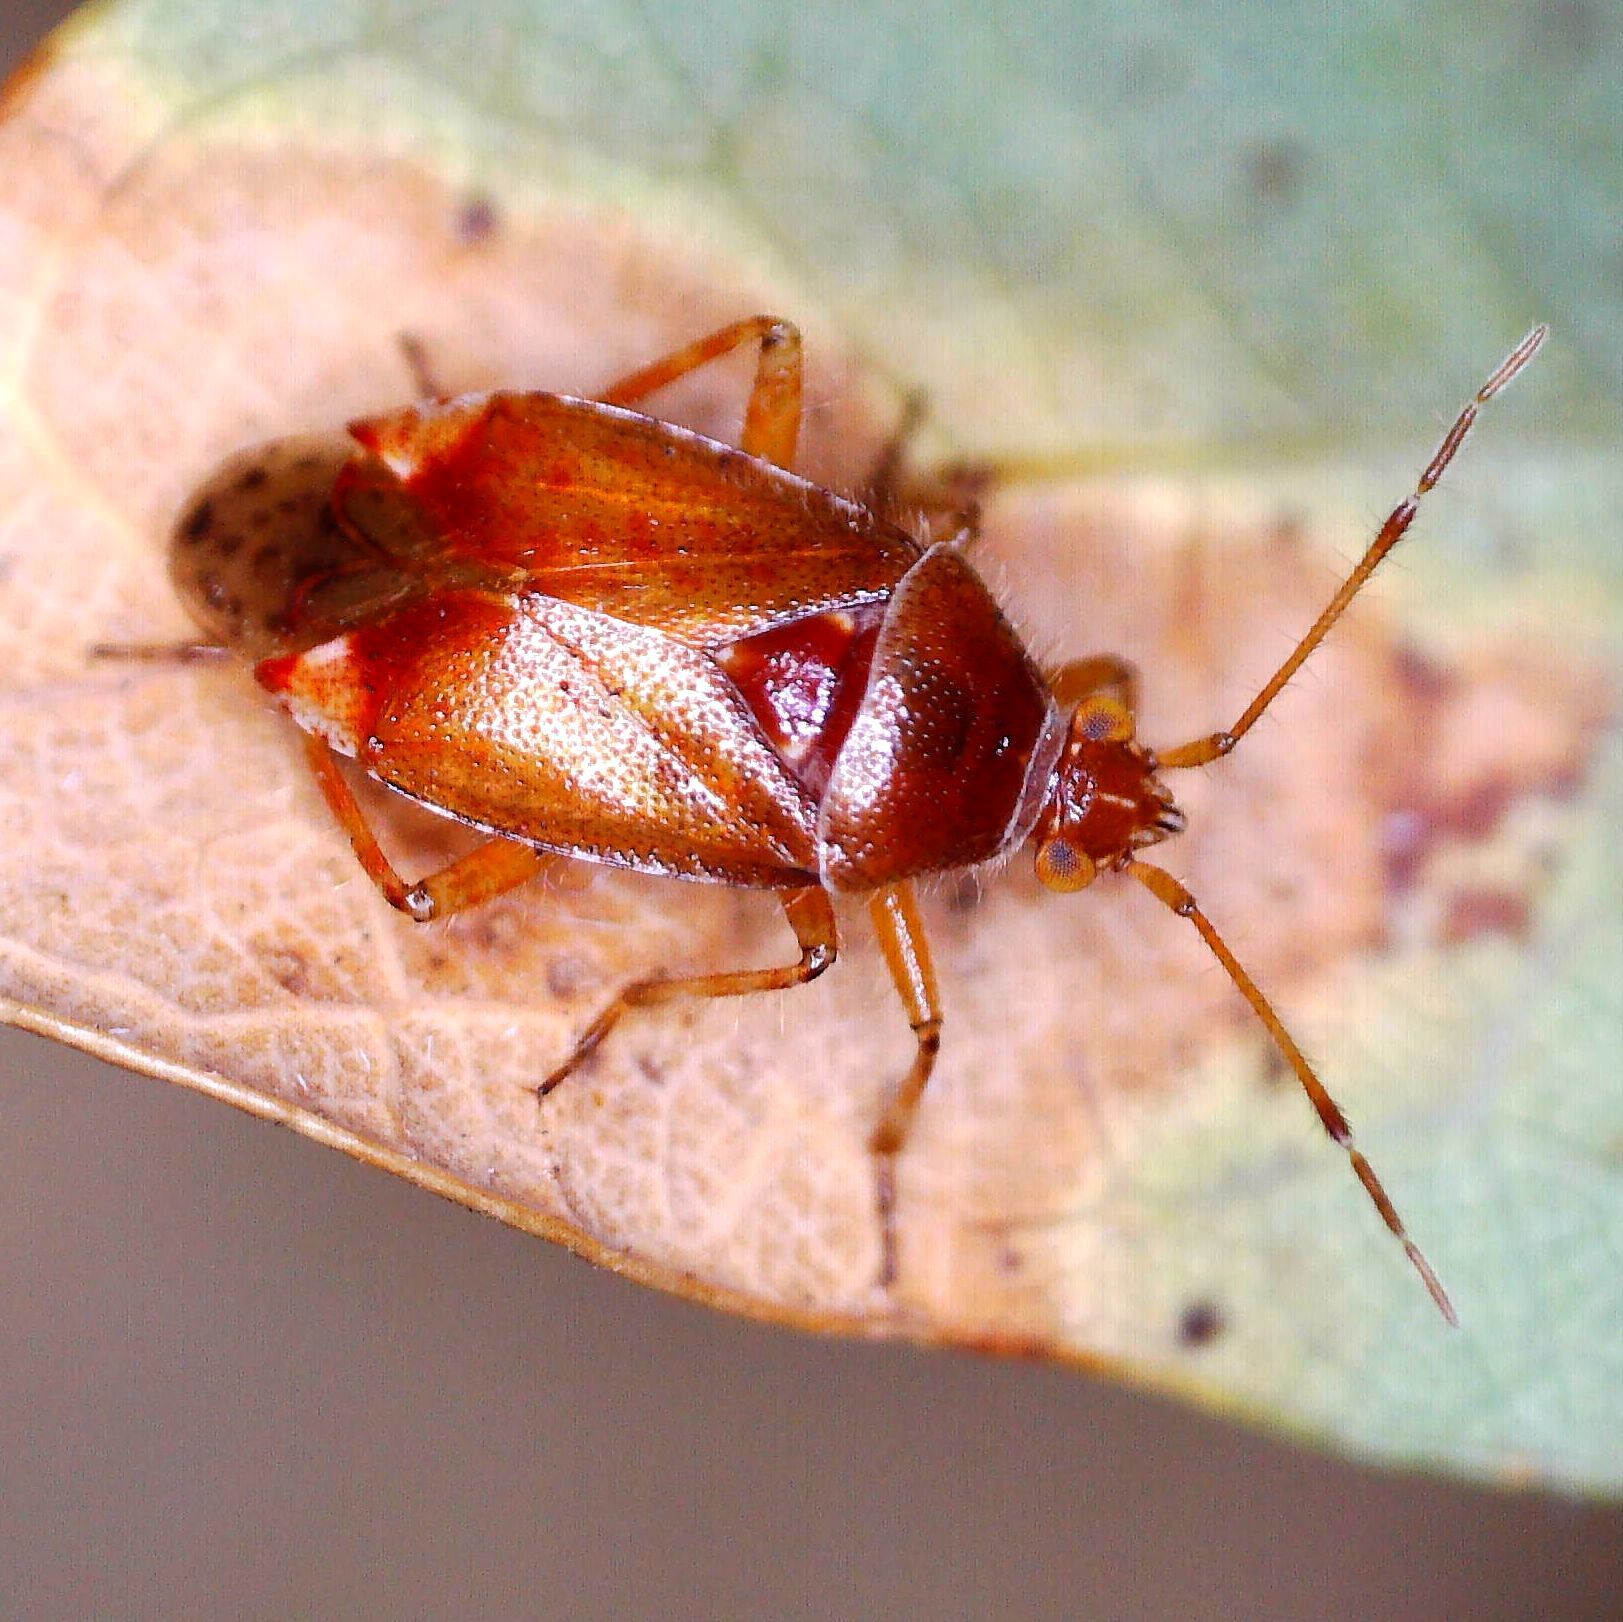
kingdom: Animalia
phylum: Arthropoda
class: Insecta
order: Hemiptera
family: Miridae
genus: Alloeotomus
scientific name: Alloeotomus gothicus
